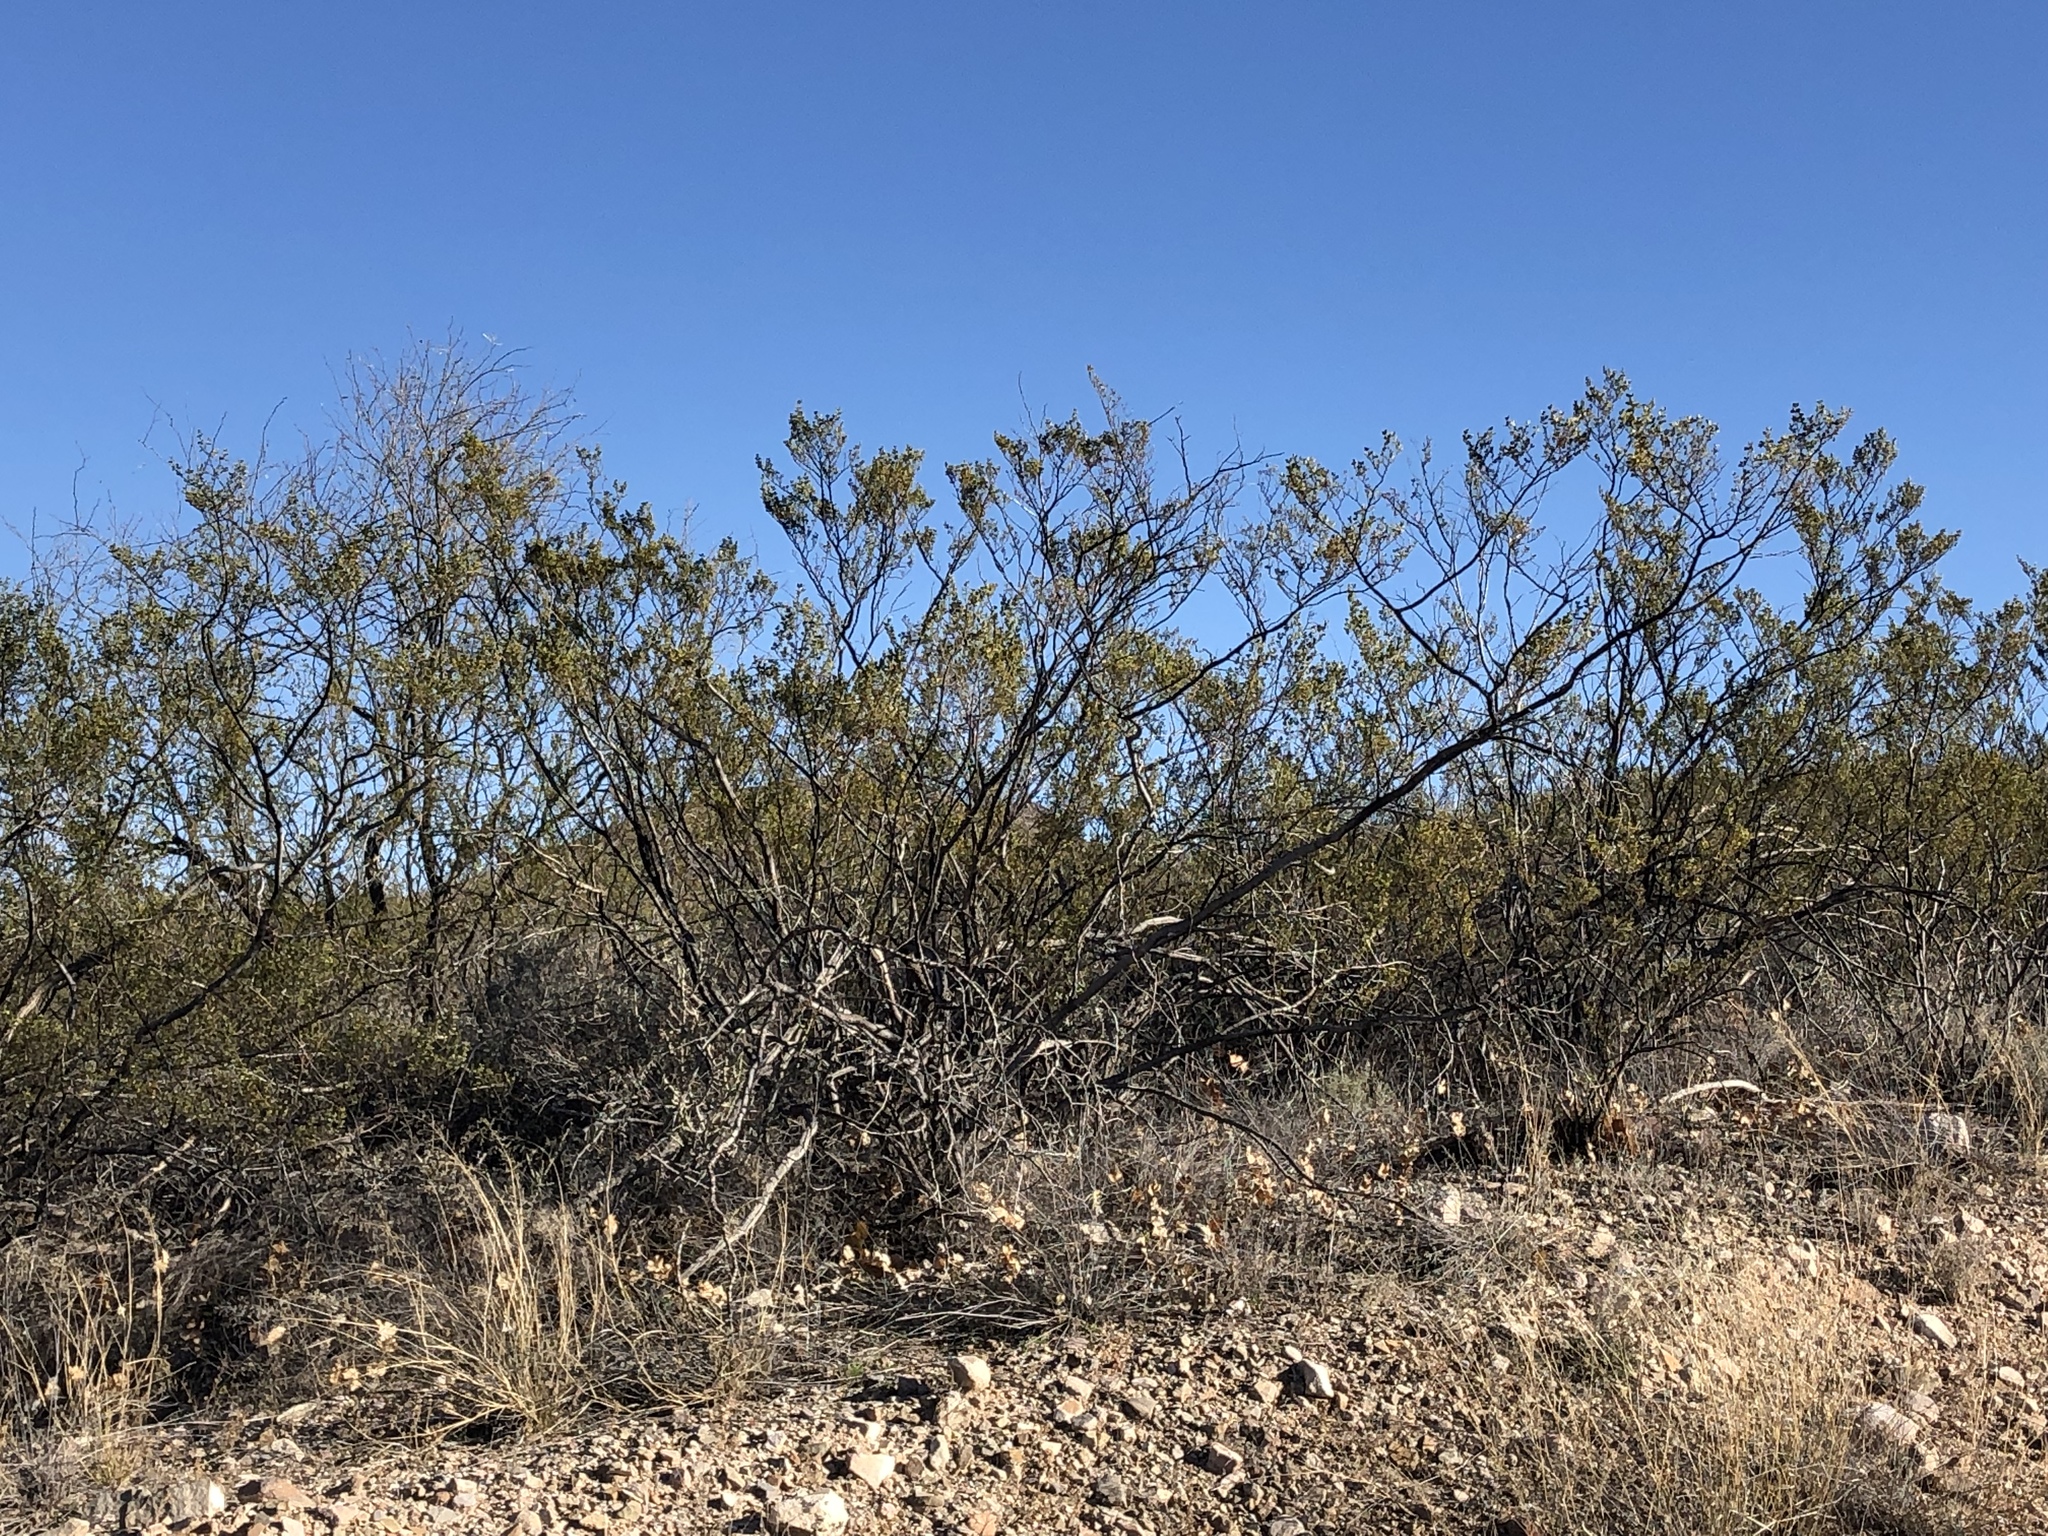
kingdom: Plantae
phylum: Tracheophyta
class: Magnoliopsida
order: Zygophyllales
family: Zygophyllaceae
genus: Larrea
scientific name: Larrea tridentata
